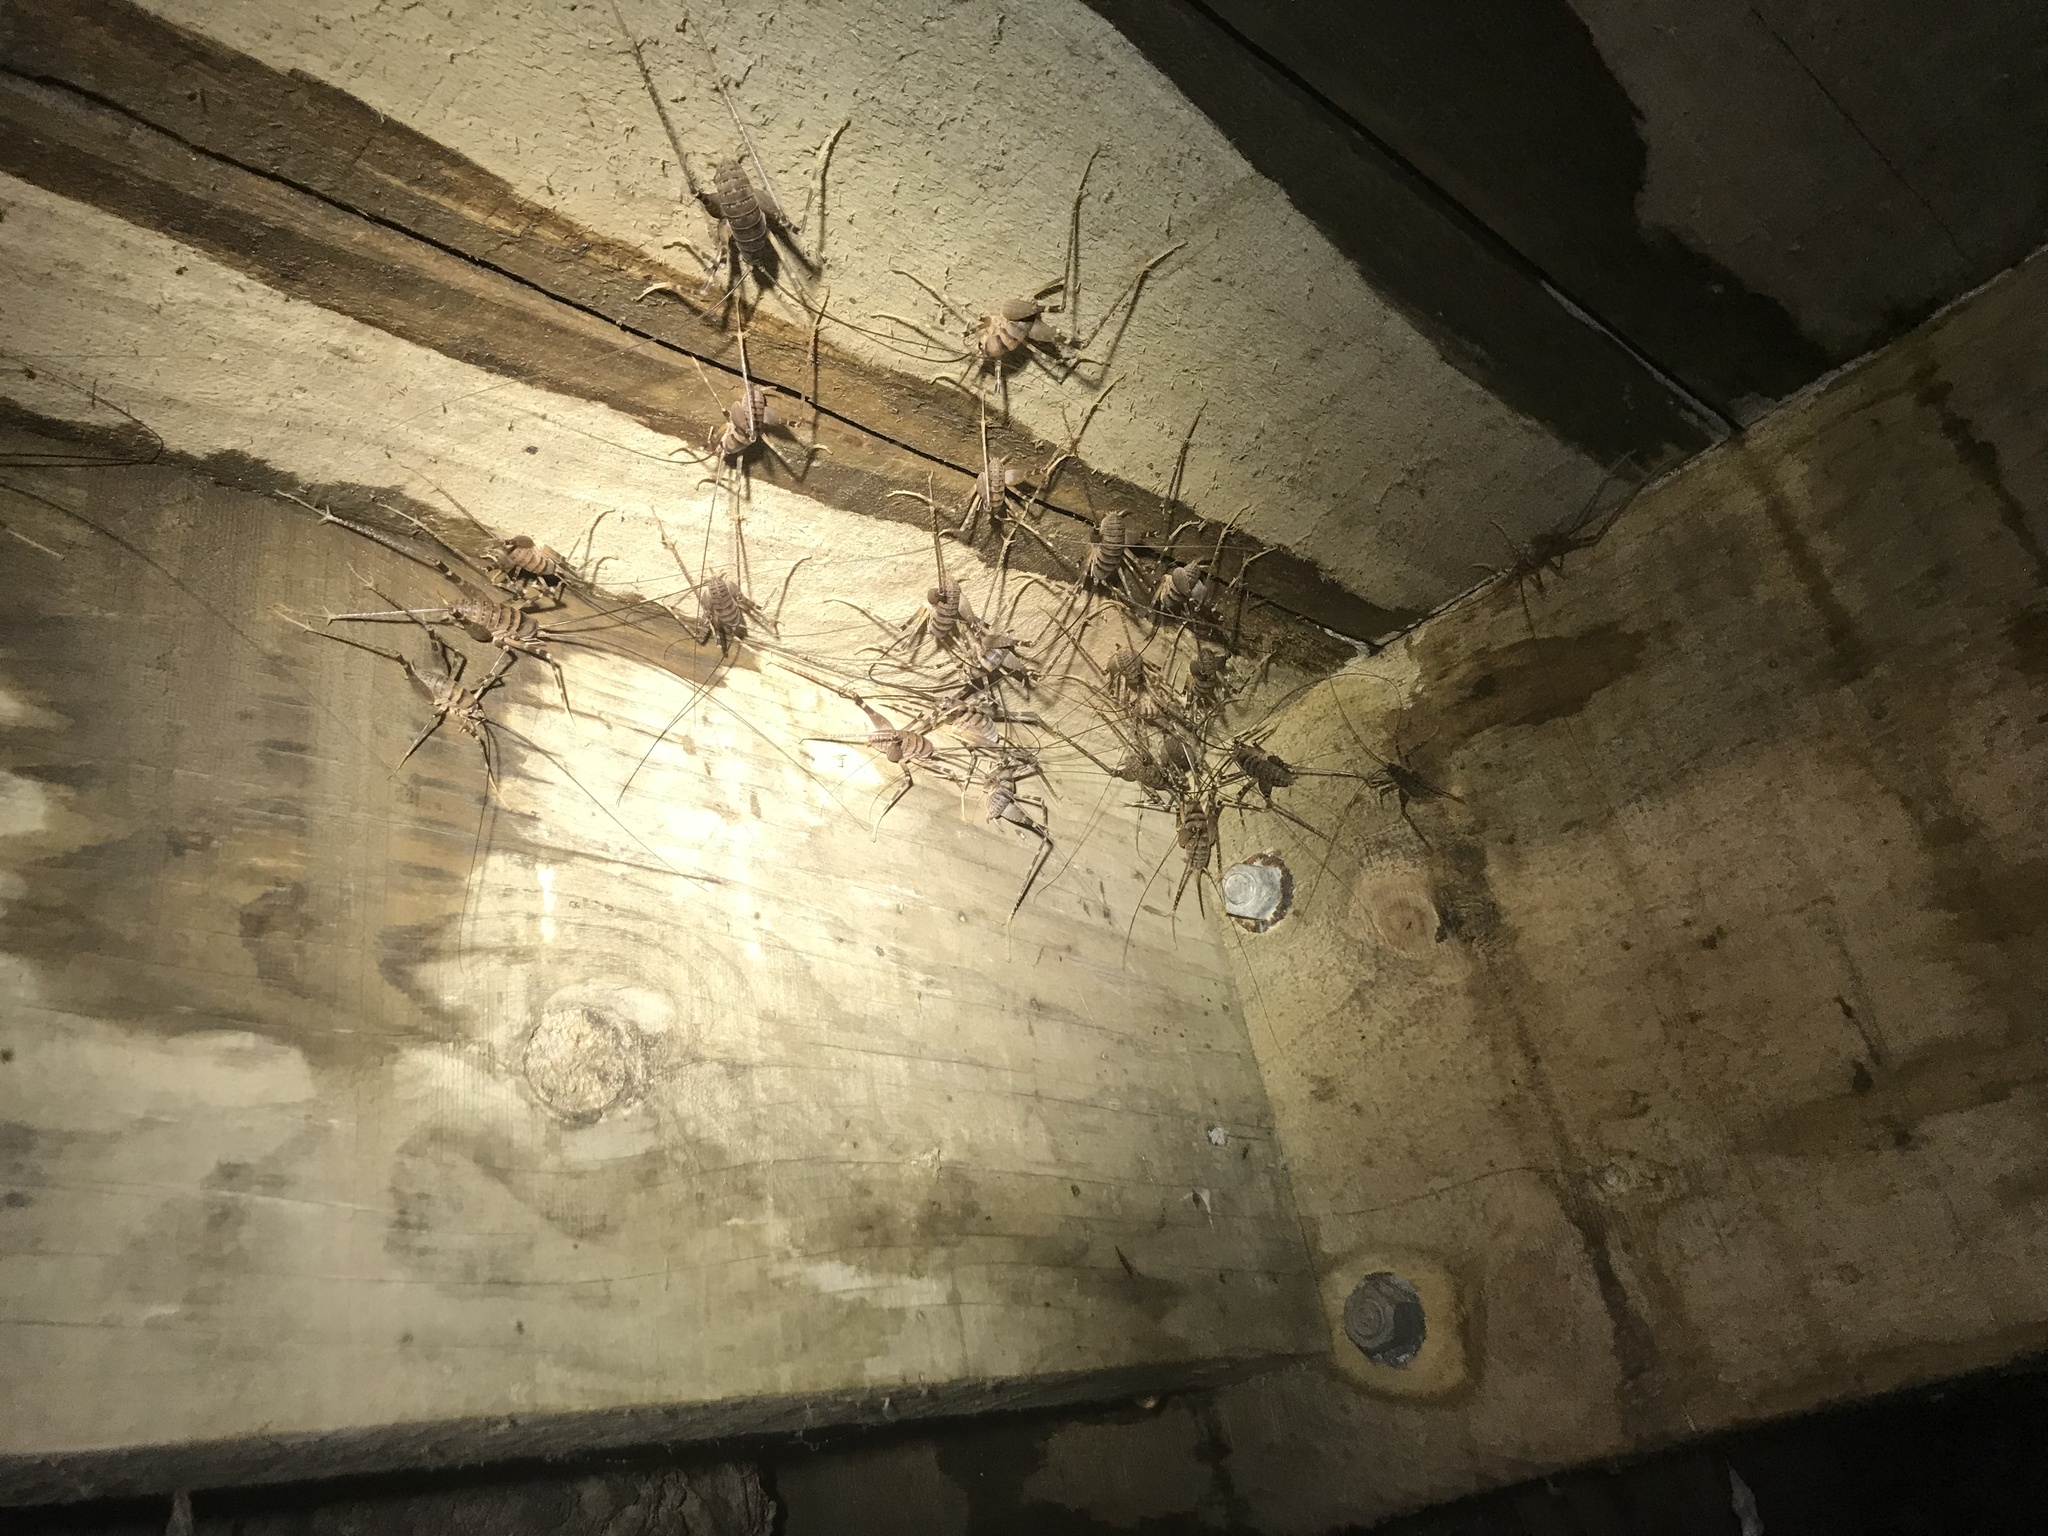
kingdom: Animalia
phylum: Arthropoda
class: Insecta
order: Orthoptera
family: Rhaphidophoridae
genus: Pachyrhamma
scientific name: Pachyrhamma edwardsii
